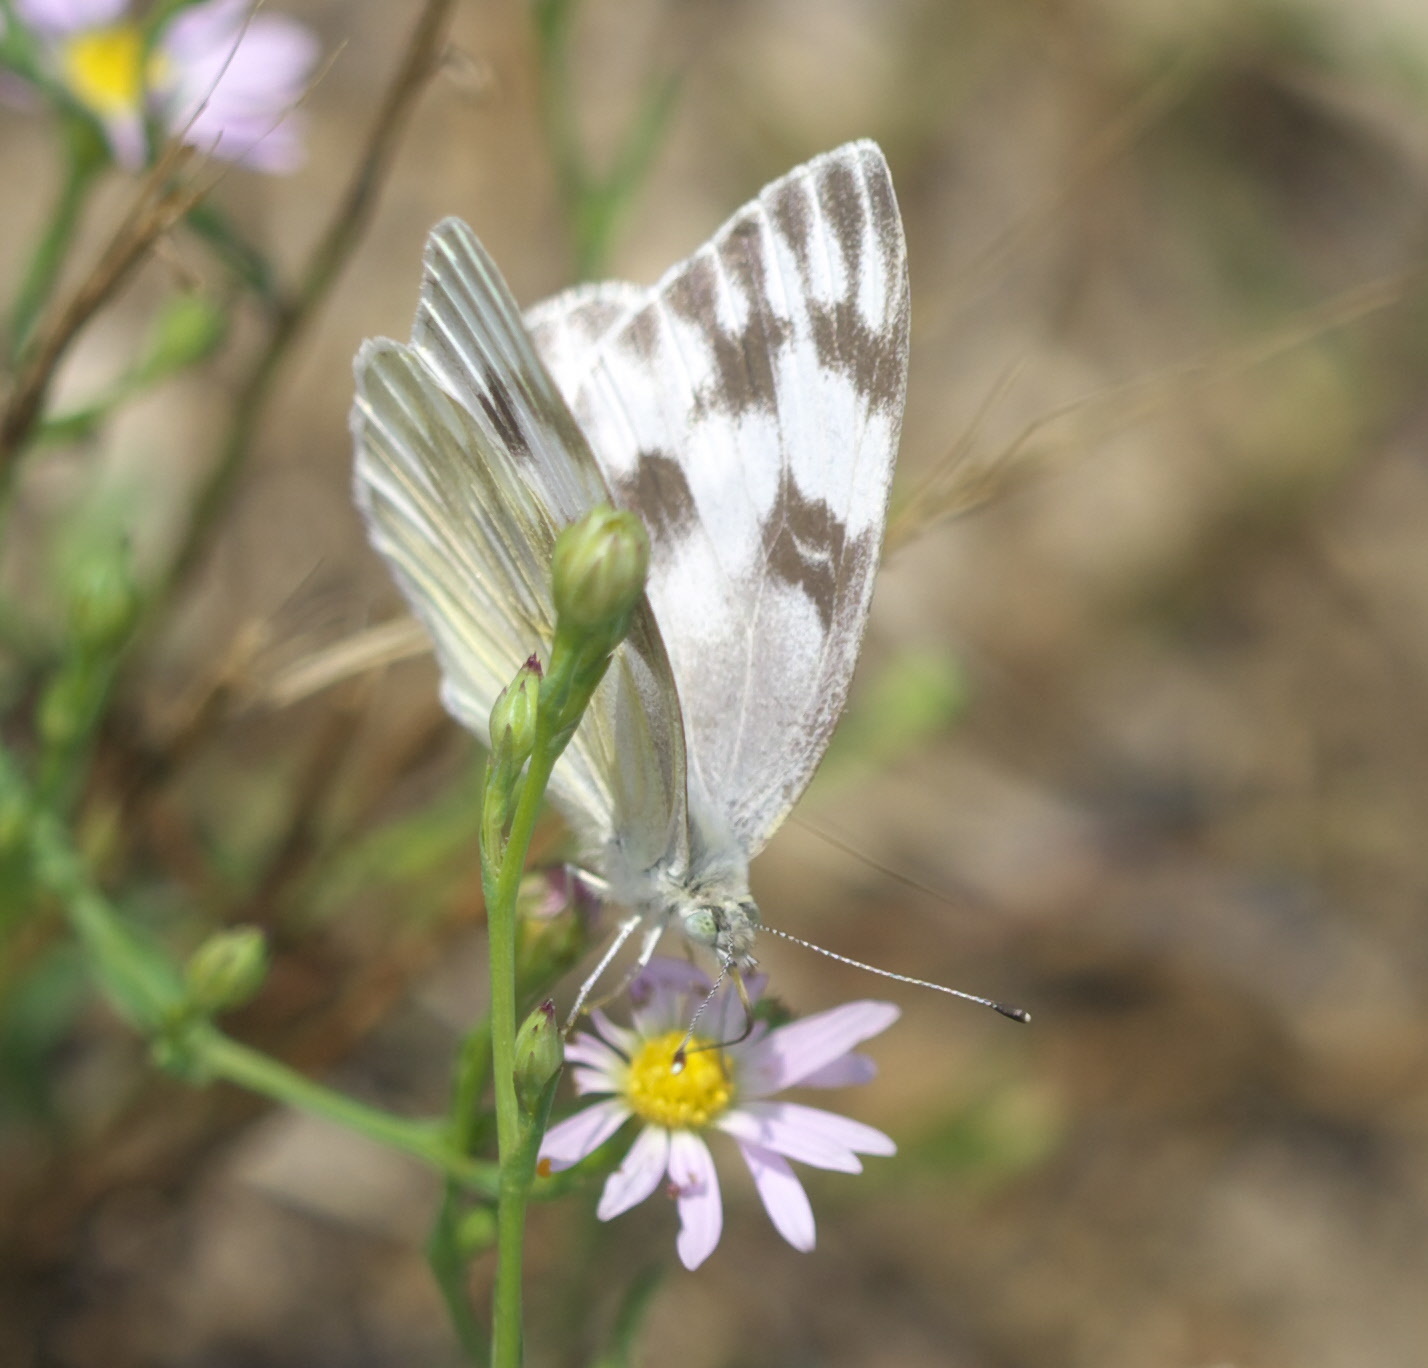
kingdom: Animalia
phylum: Arthropoda
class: Insecta
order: Lepidoptera
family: Pieridae
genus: Pontia
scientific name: Pontia protodice
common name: Checkered white
